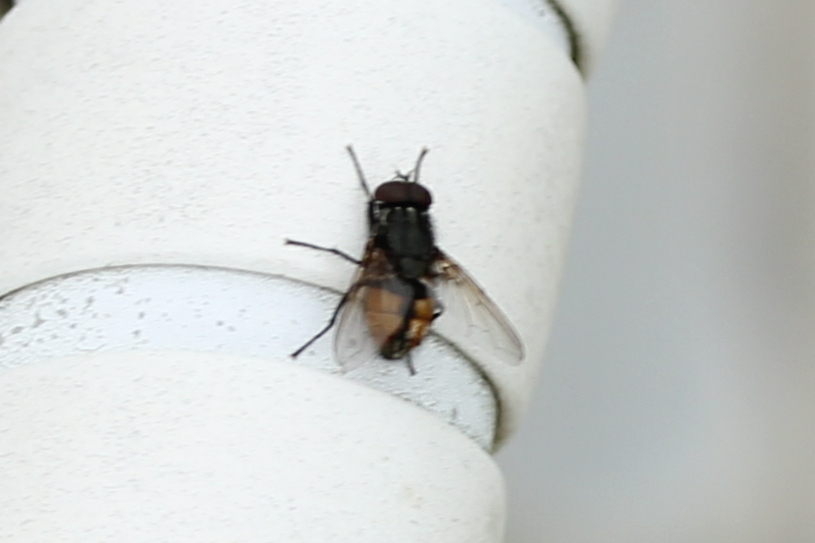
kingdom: Animalia
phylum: Arthropoda
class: Insecta
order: Diptera
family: Muscidae
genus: Musca
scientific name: Musca autumnalis
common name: Face fly
